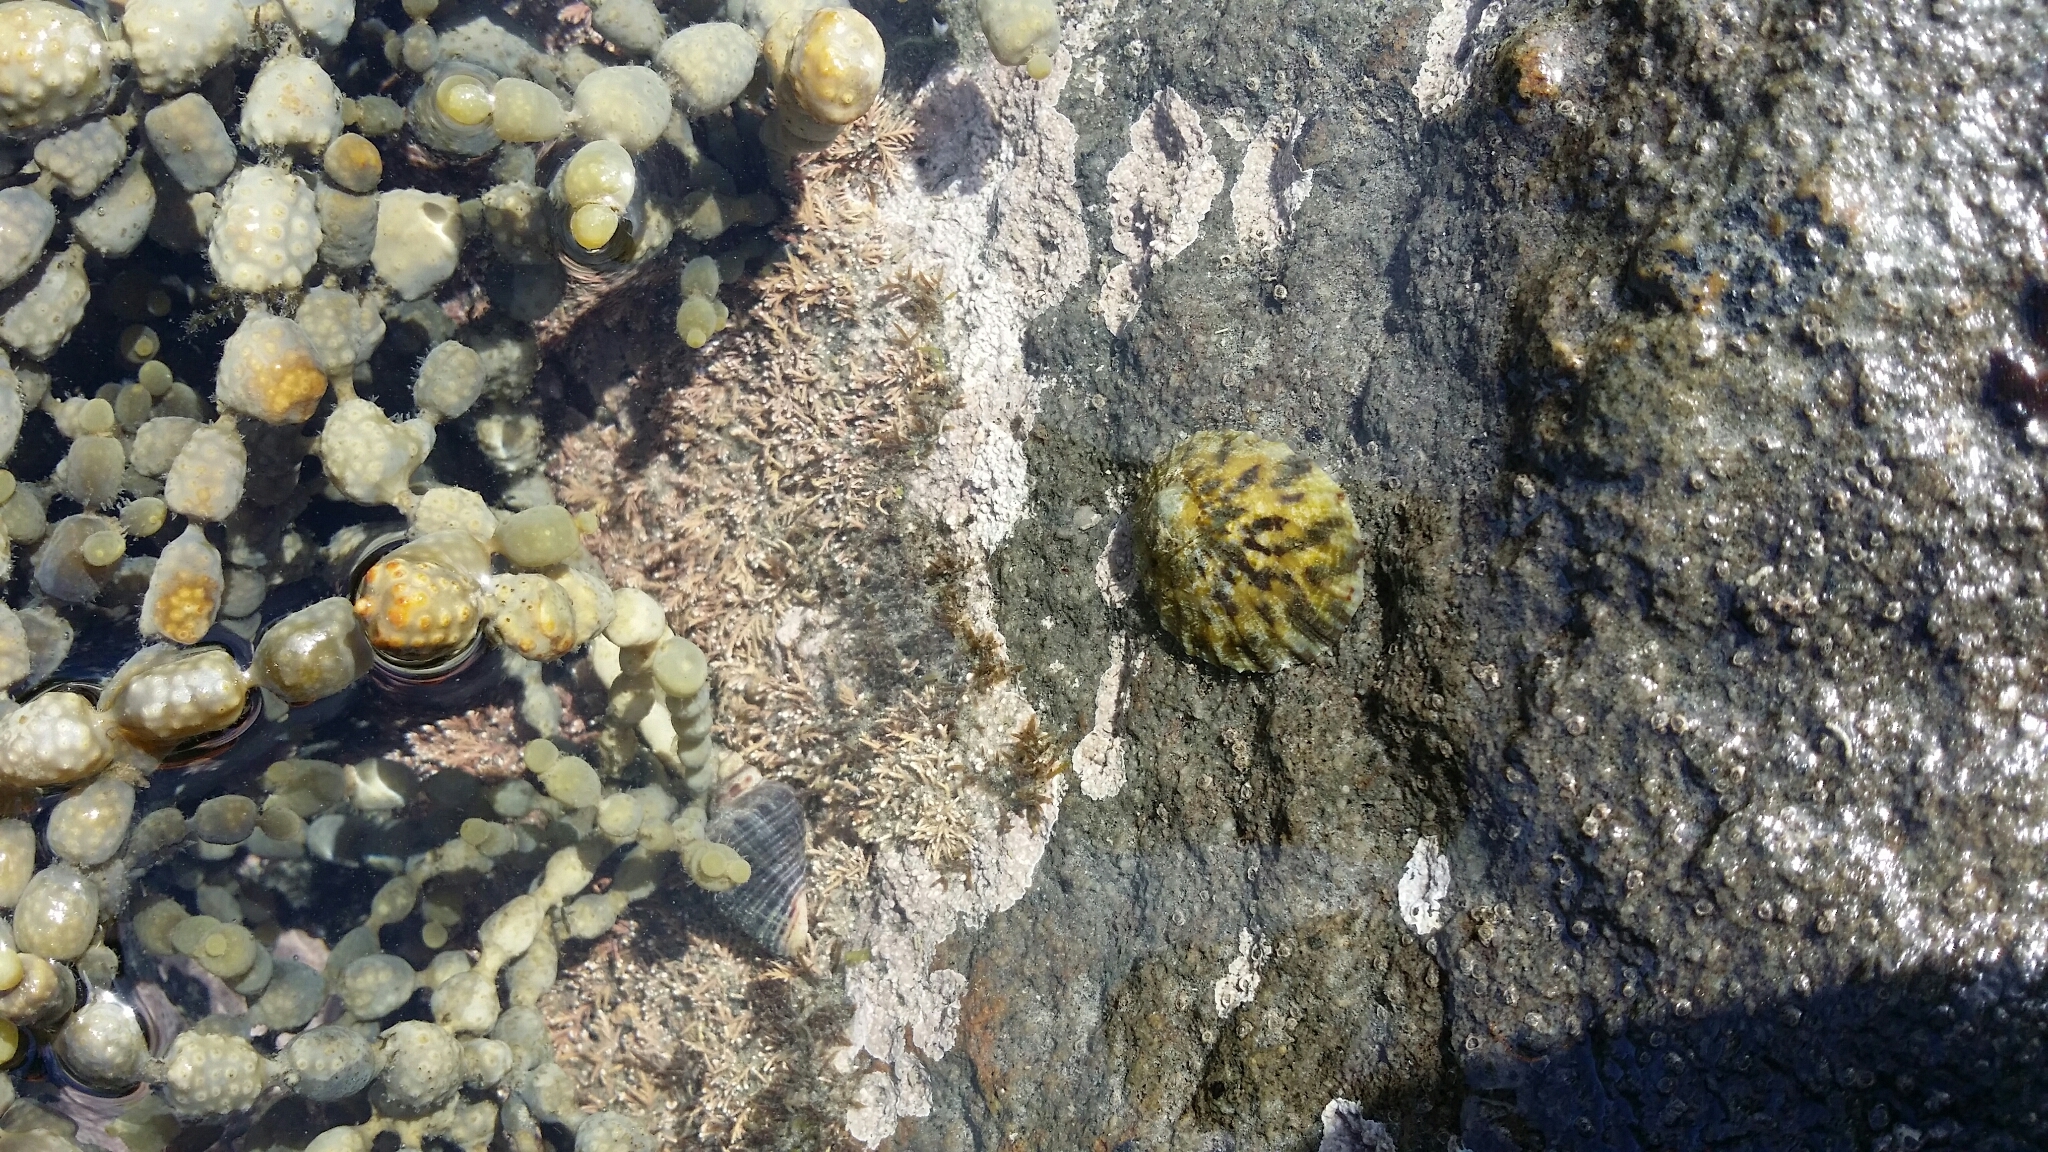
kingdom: Animalia
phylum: Mollusca
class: Gastropoda
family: Nacellidae
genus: Cellana
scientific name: Cellana radians
